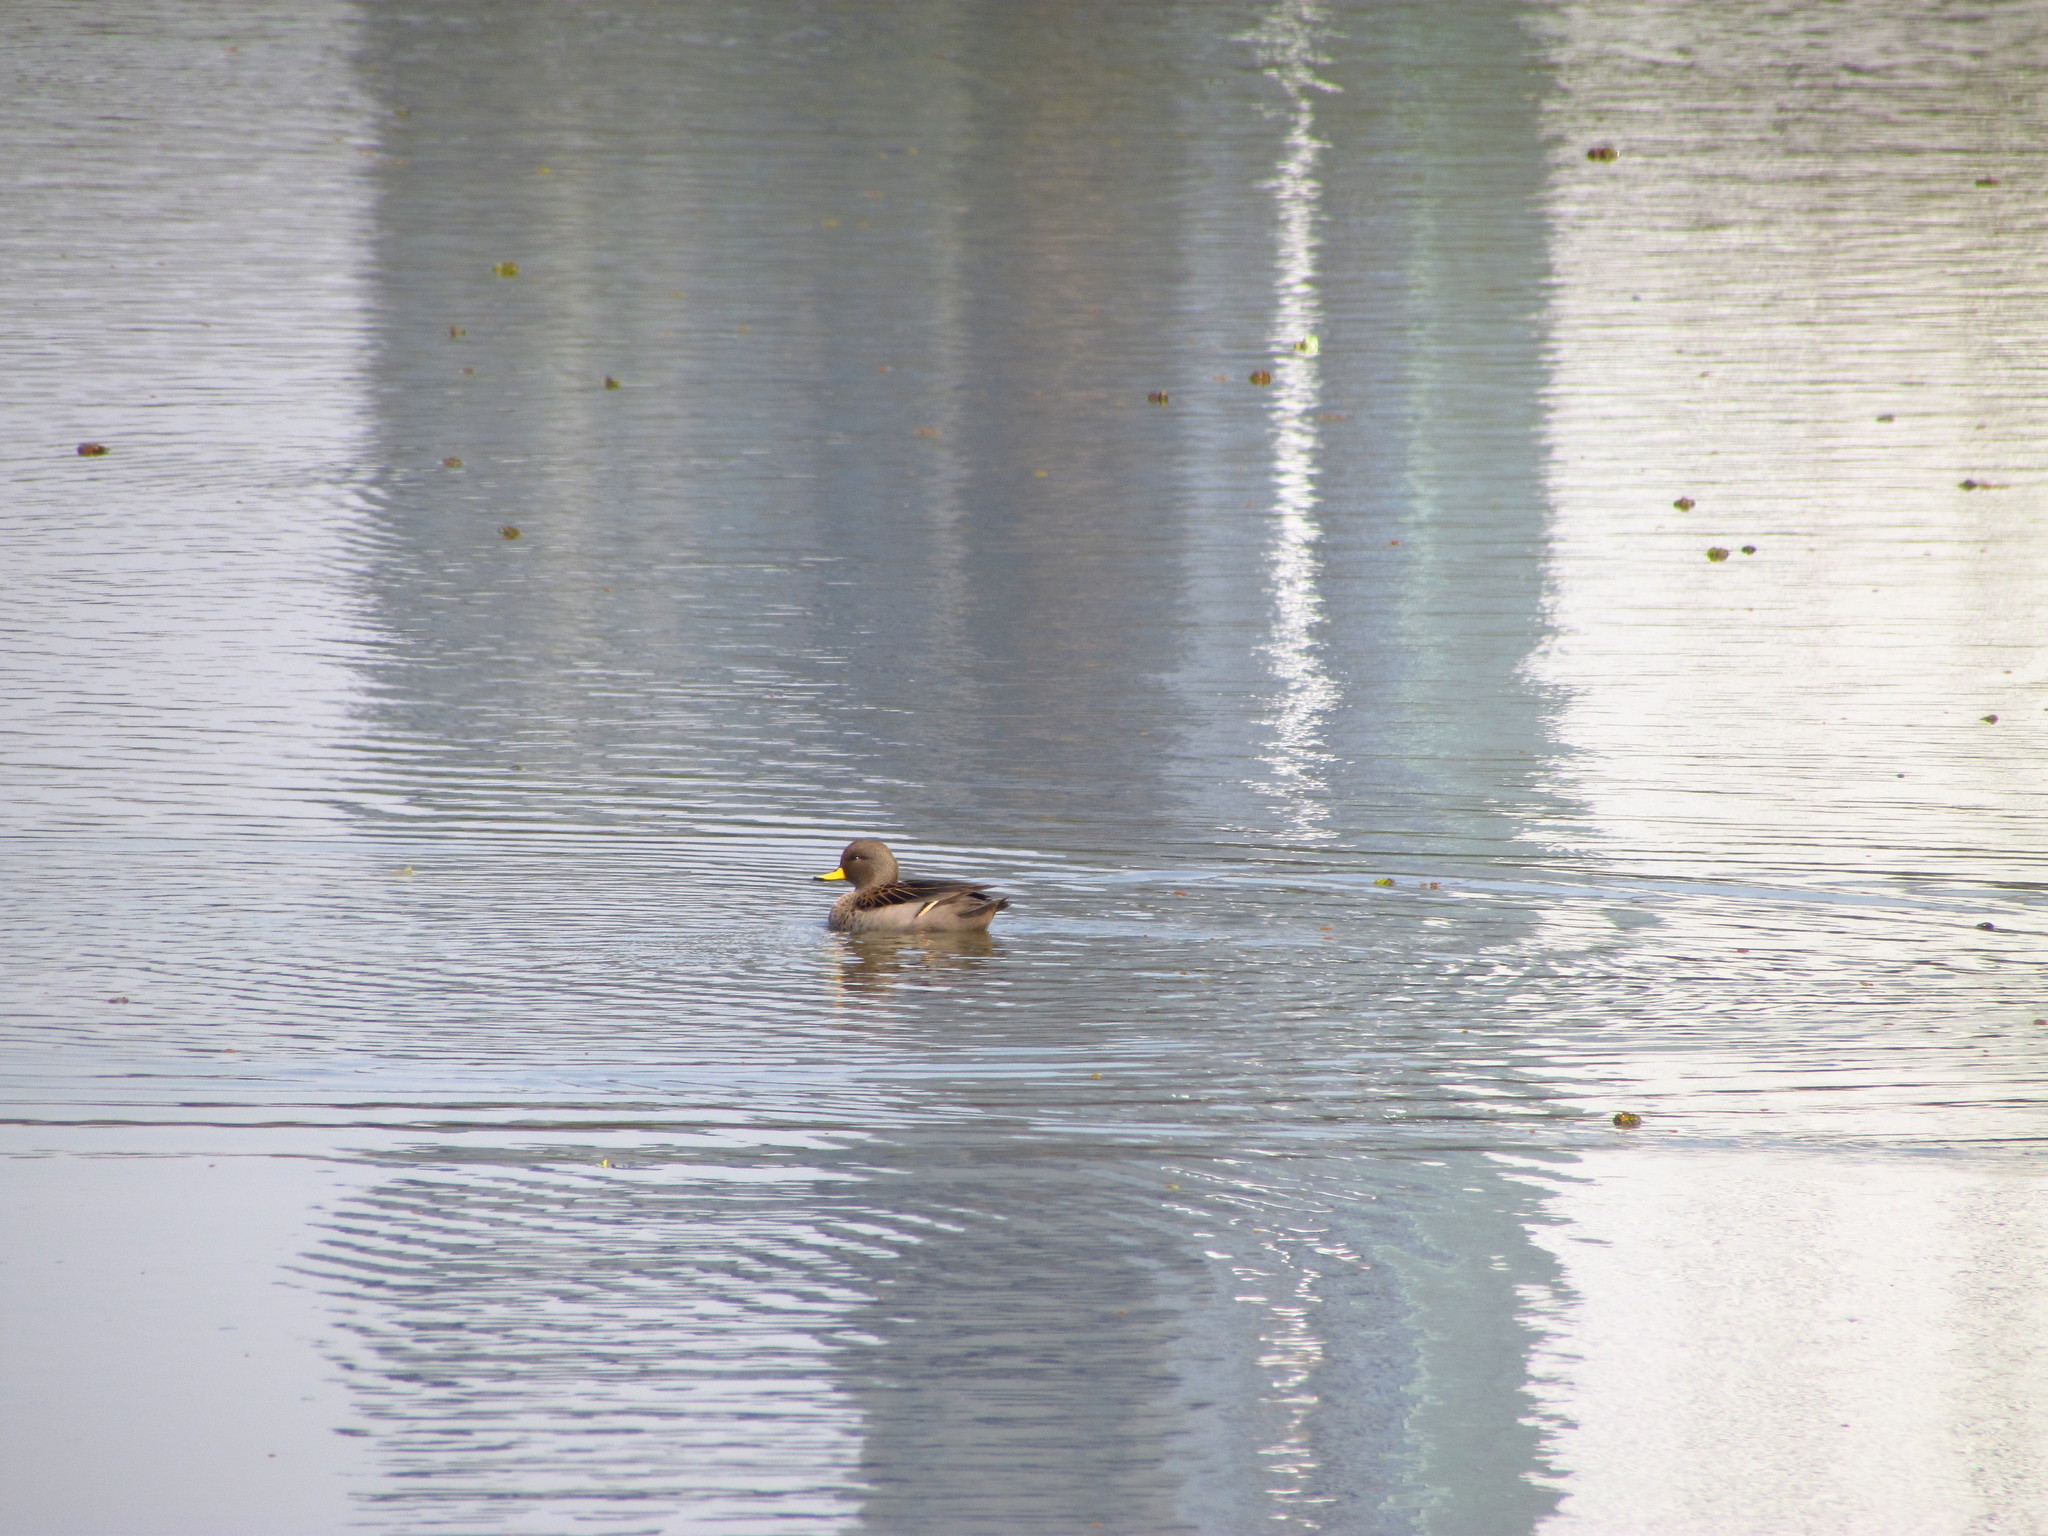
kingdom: Animalia
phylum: Chordata
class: Aves
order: Anseriformes
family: Anatidae
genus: Anas
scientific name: Anas flavirostris
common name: Yellow-billed teal
